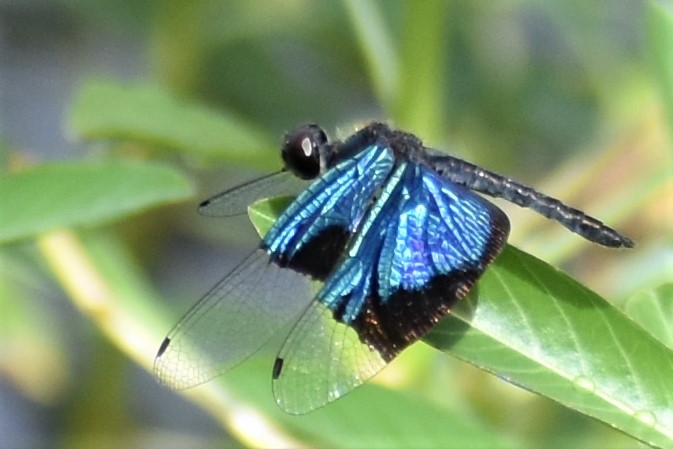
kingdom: Animalia
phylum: Arthropoda
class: Insecta
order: Odonata
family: Libellulidae
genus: Rhyothemis
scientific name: Rhyothemis resplendens
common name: Jewel flutterer
